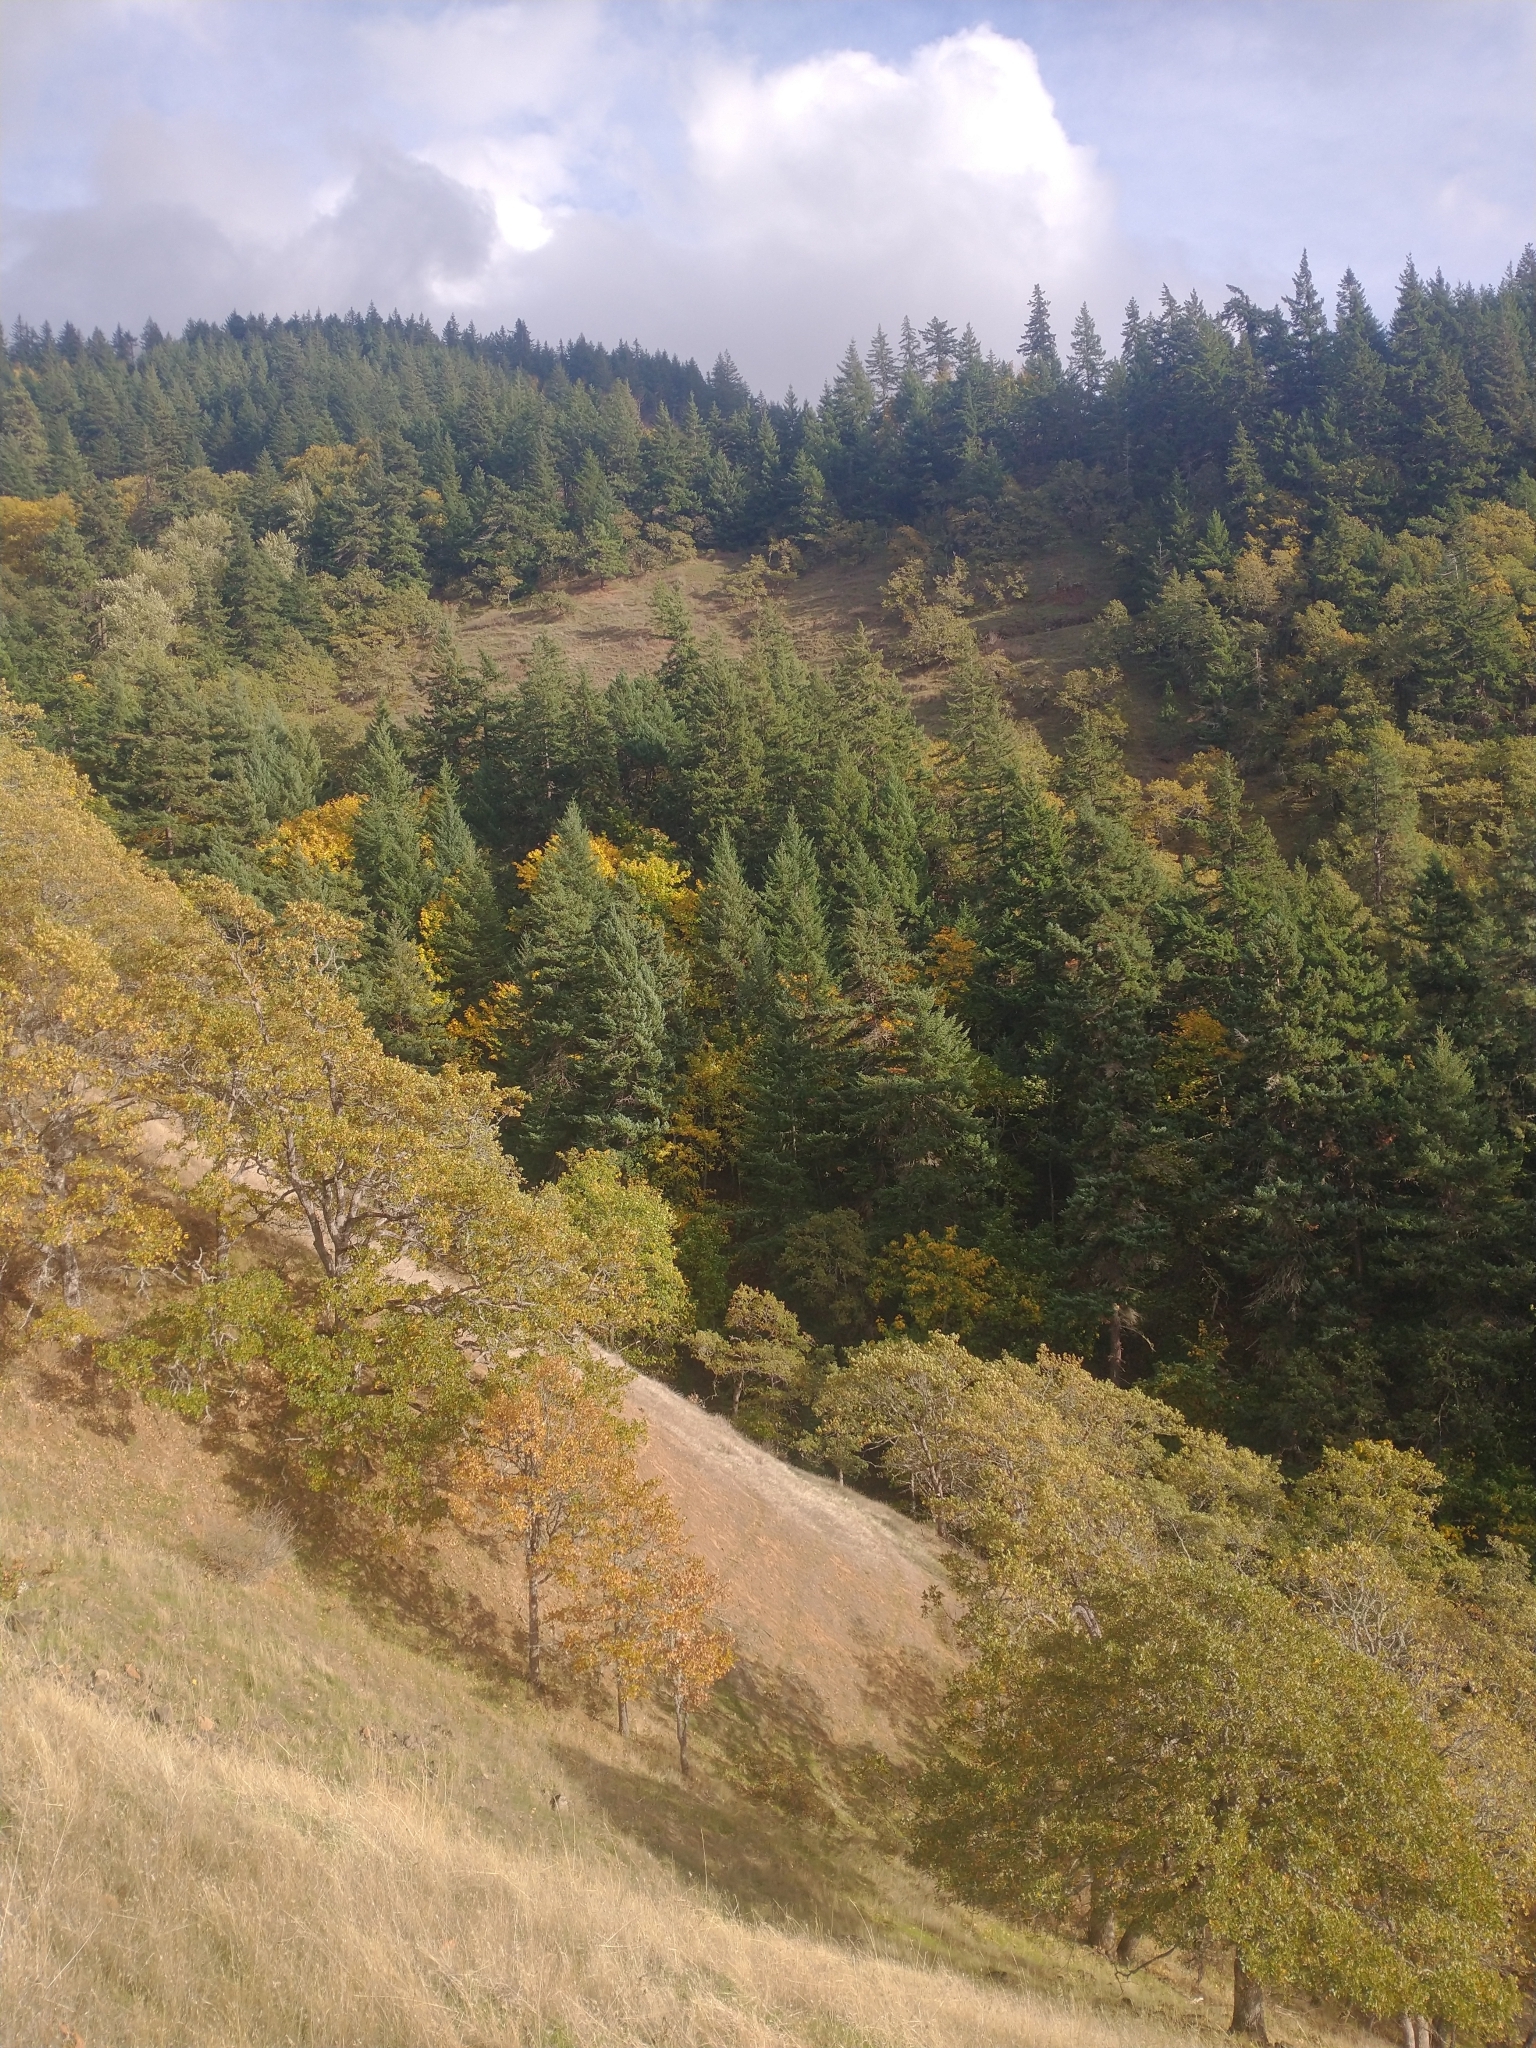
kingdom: Plantae
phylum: Tracheophyta
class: Pinopsida
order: Pinales
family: Pinaceae
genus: Pseudotsuga
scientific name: Pseudotsuga menziesii
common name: Douglas fir
